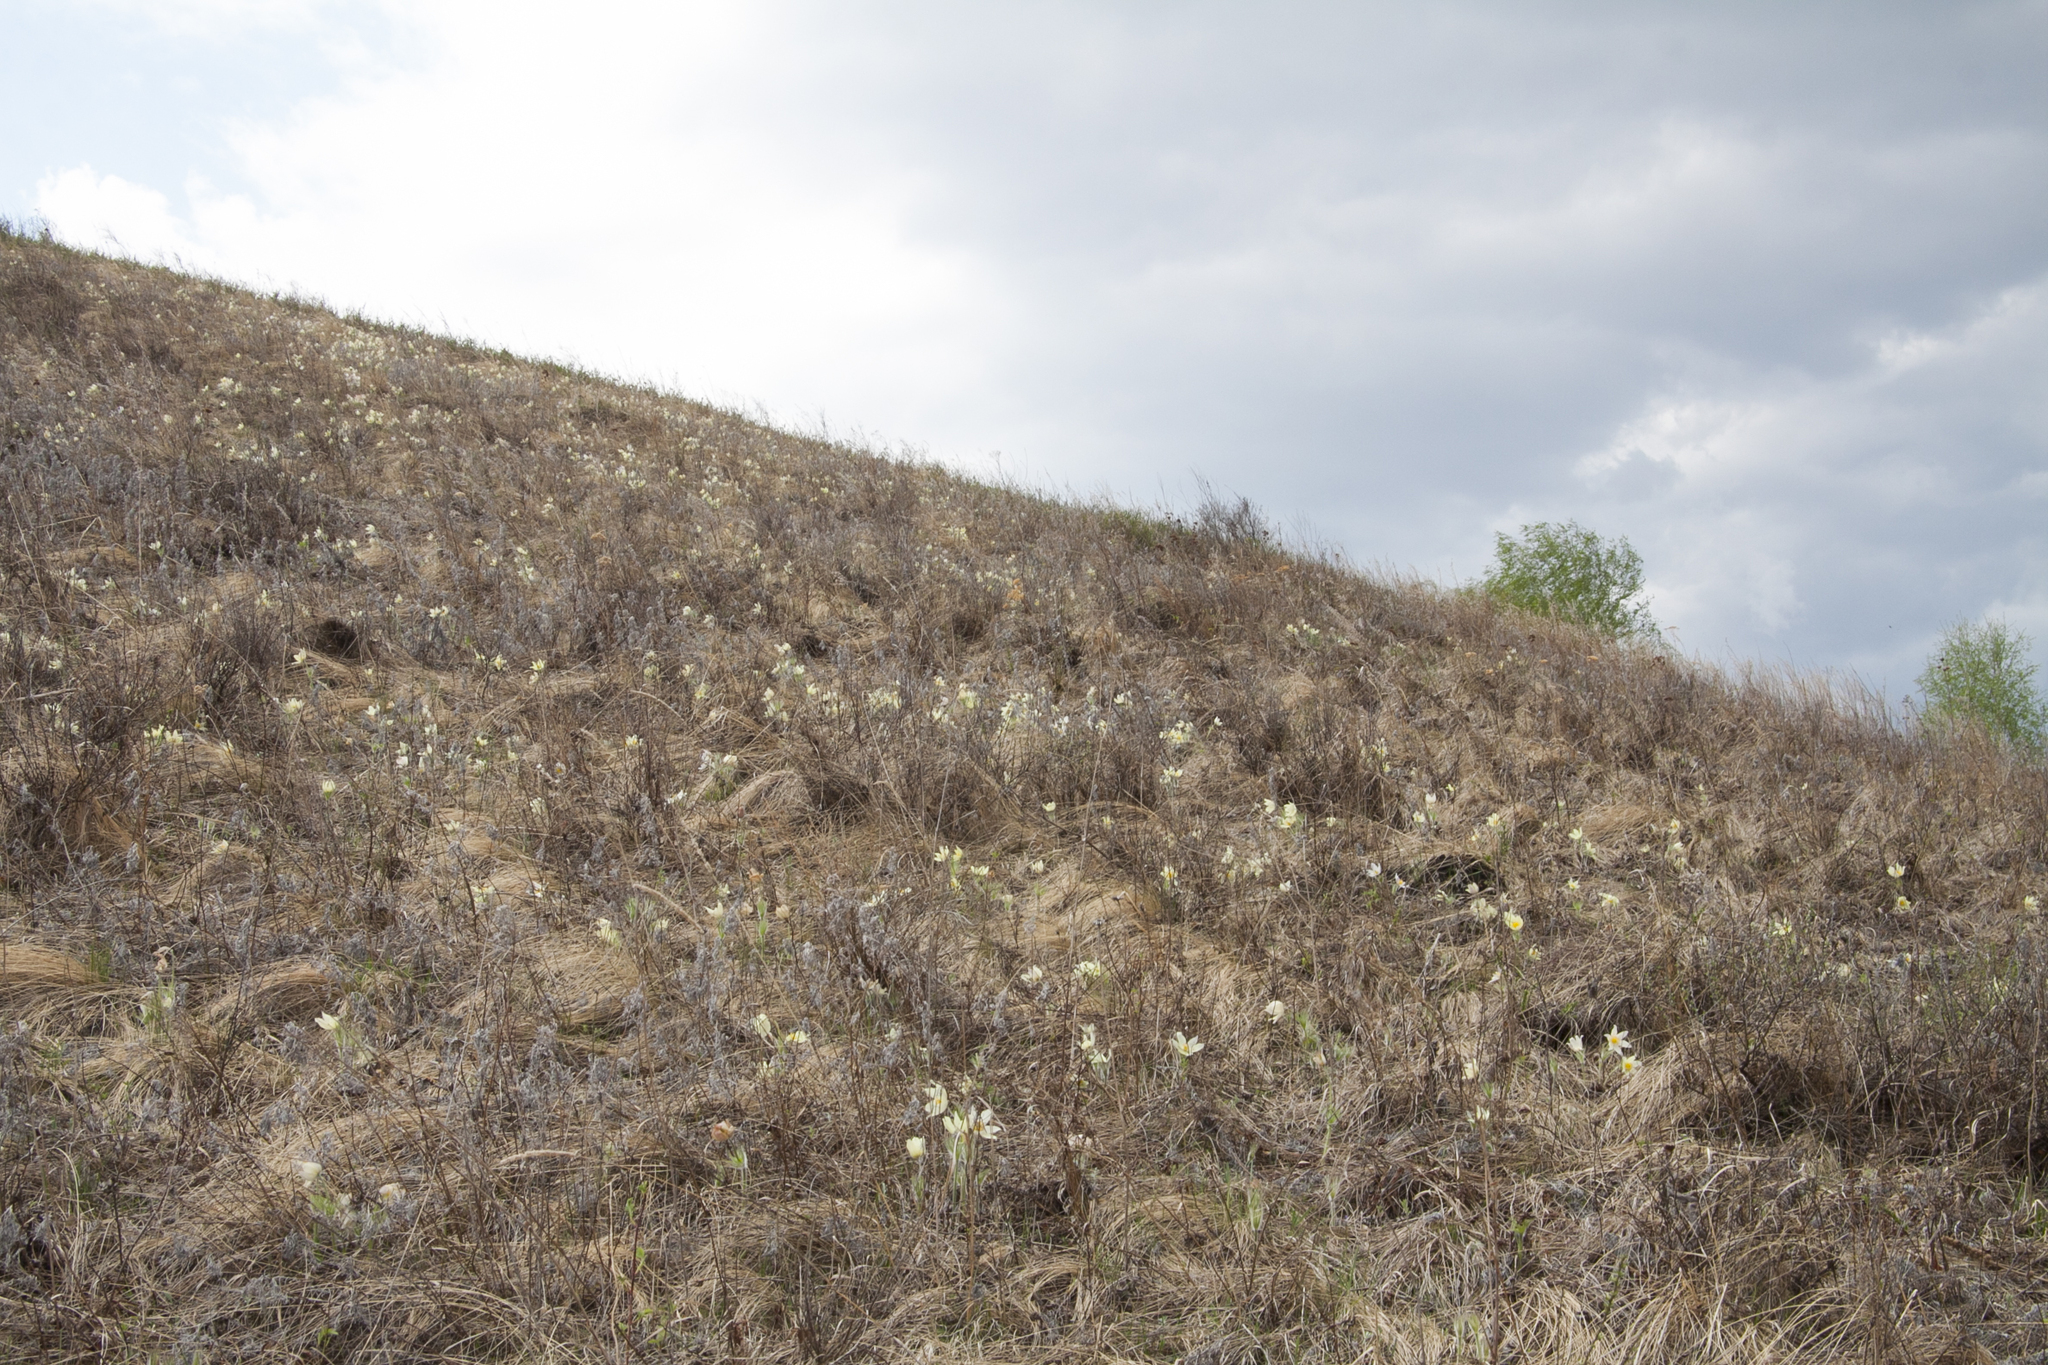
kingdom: Plantae
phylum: Tracheophyta
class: Magnoliopsida
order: Ranunculales
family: Ranunculaceae
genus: Pulsatilla
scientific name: Pulsatilla patens
